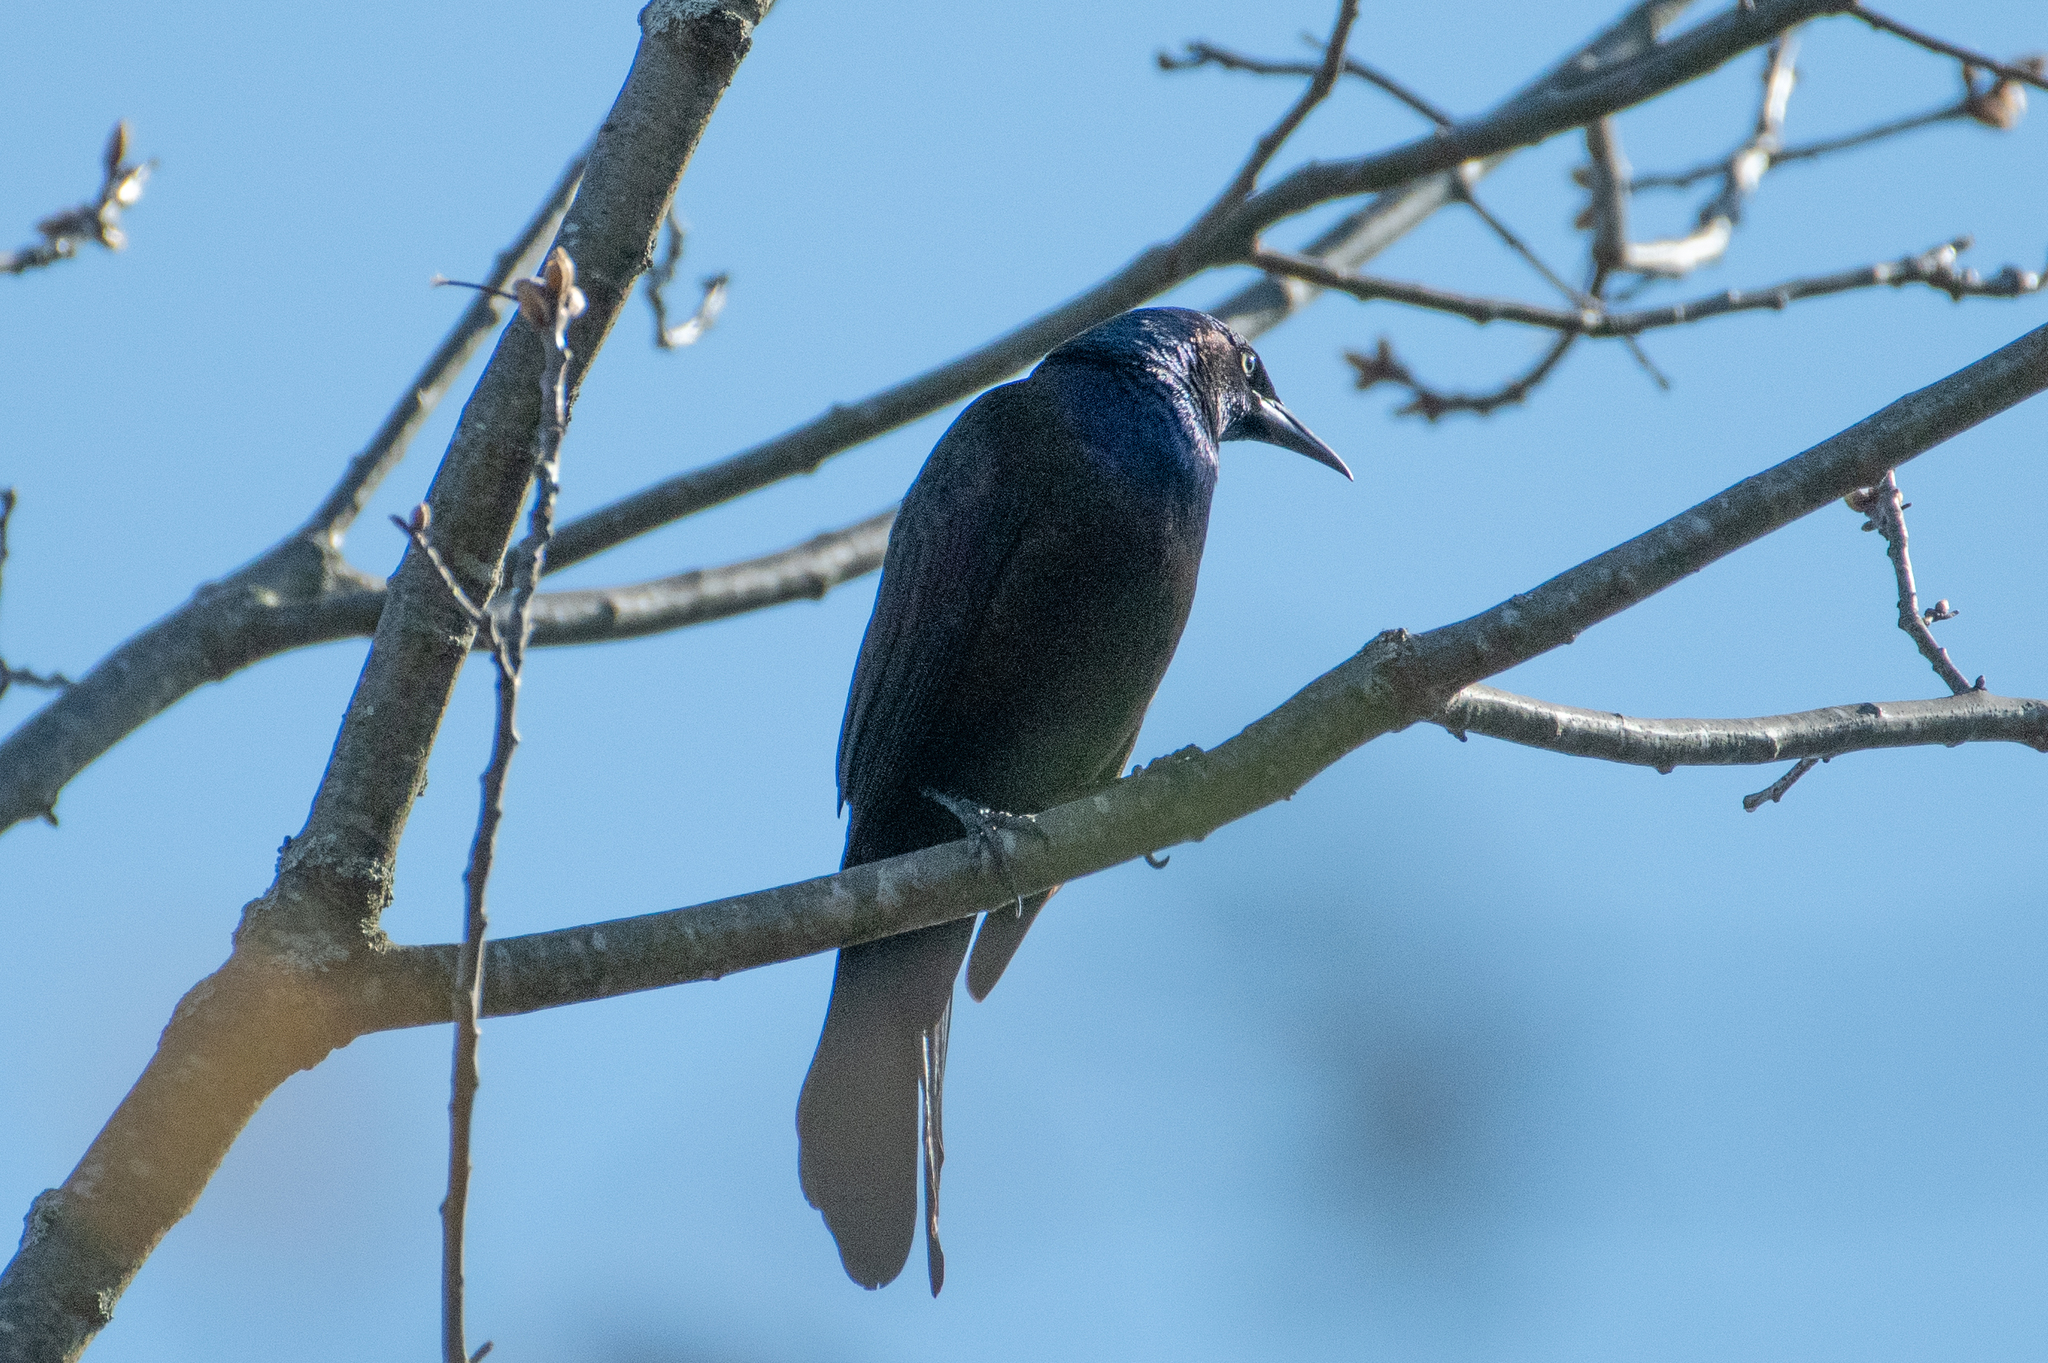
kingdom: Animalia
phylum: Chordata
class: Aves
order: Passeriformes
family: Icteridae
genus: Quiscalus
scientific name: Quiscalus quiscula
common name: Common grackle
